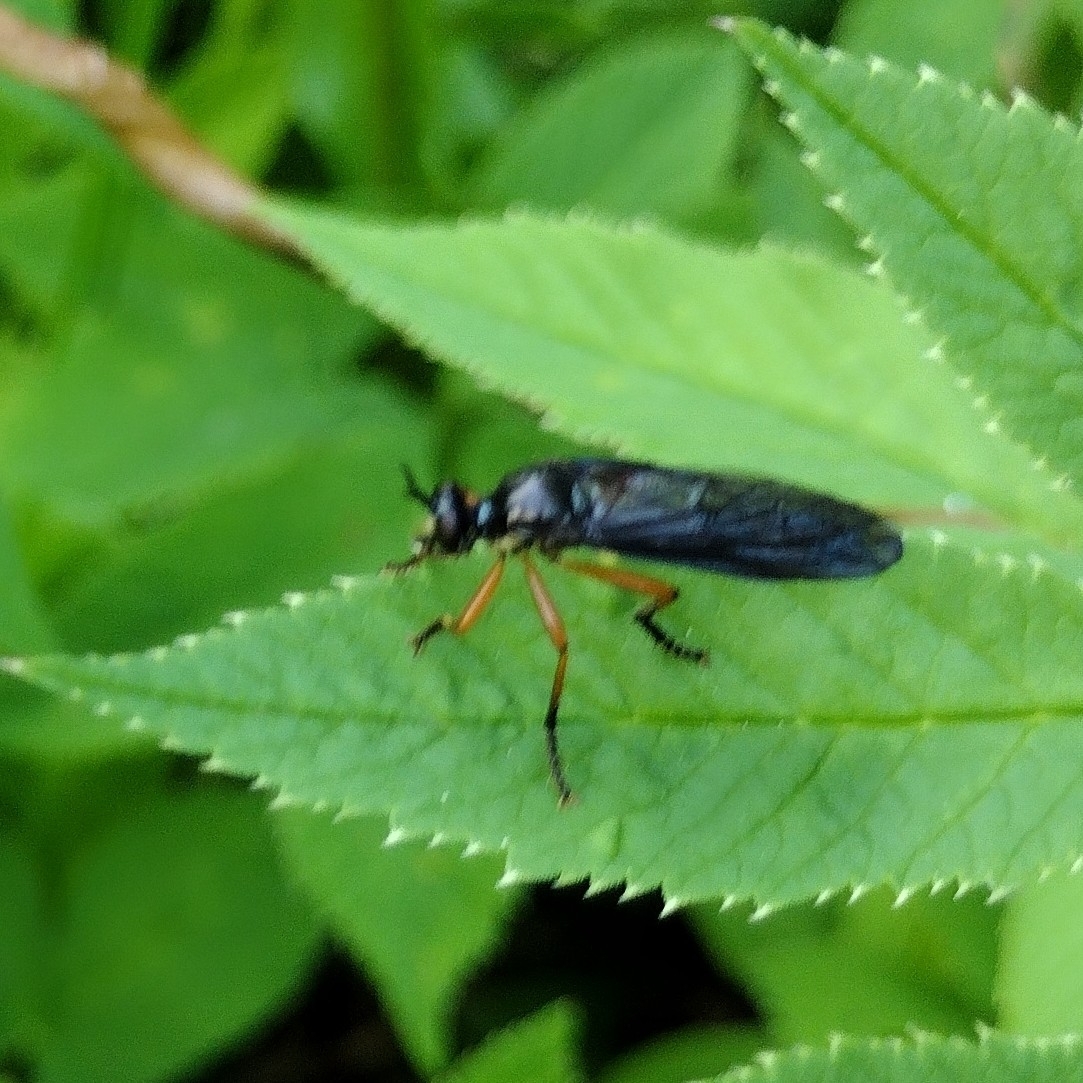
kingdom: Animalia
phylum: Arthropoda
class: Insecta
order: Diptera
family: Asilidae
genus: Dioctria
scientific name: Dioctria oelandica
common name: Orange-legged robberfly
